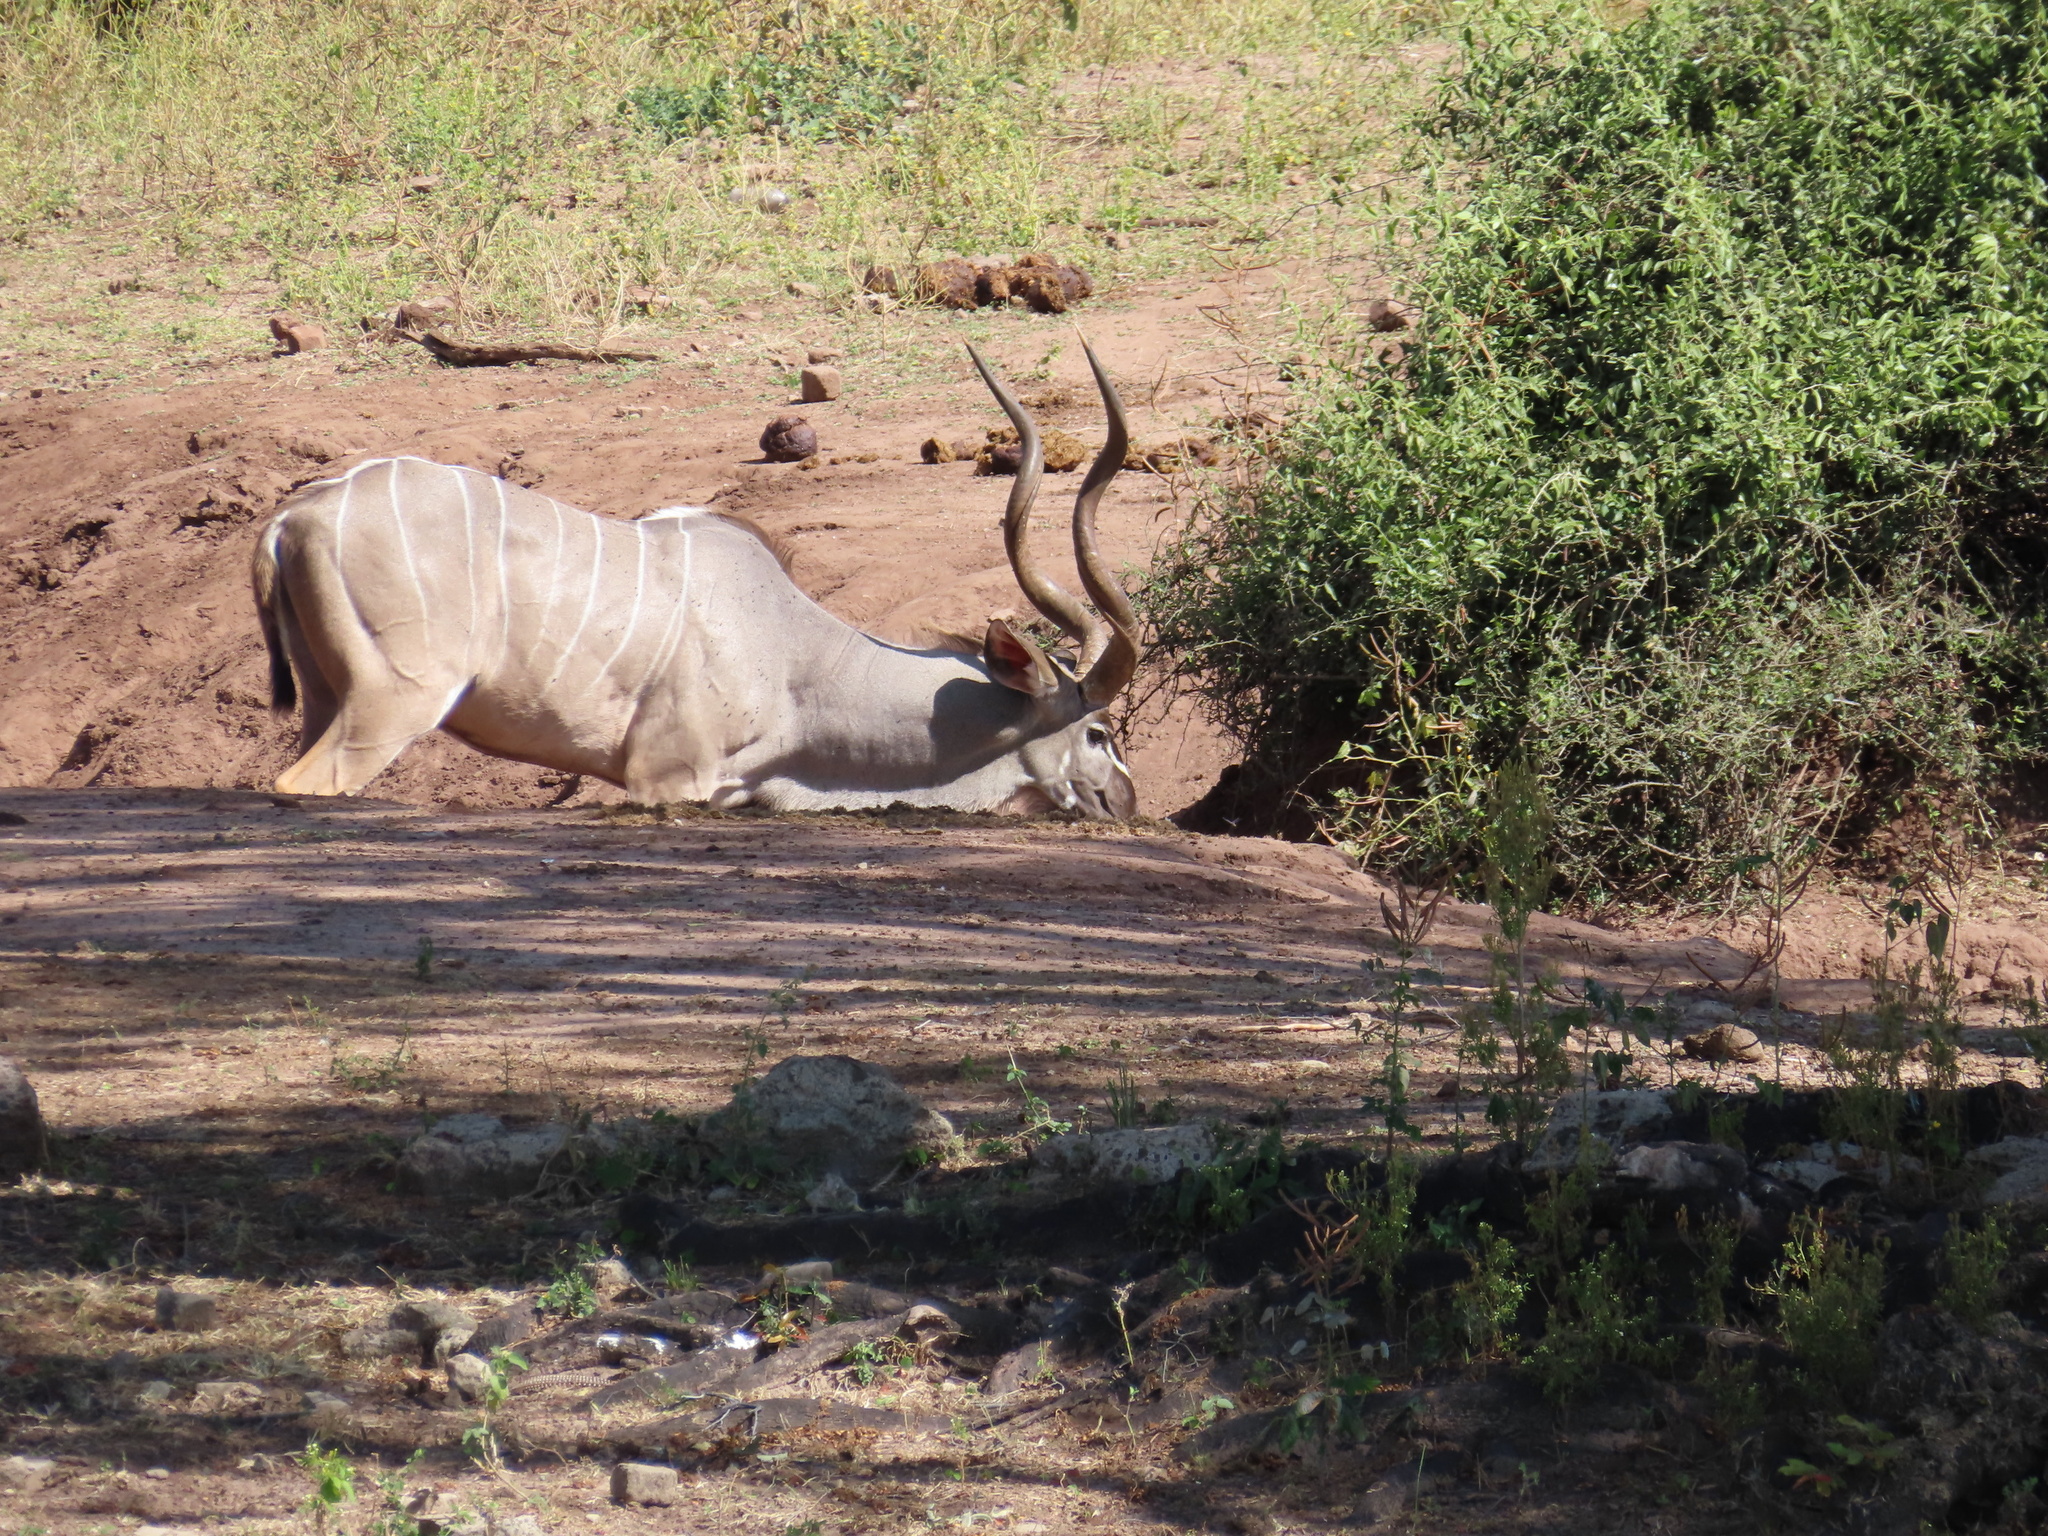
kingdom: Animalia
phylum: Chordata
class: Mammalia
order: Artiodactyla
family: Bovidae
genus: Tragelaphus
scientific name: Tragelaphus strepsiceros
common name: Greater kudu
